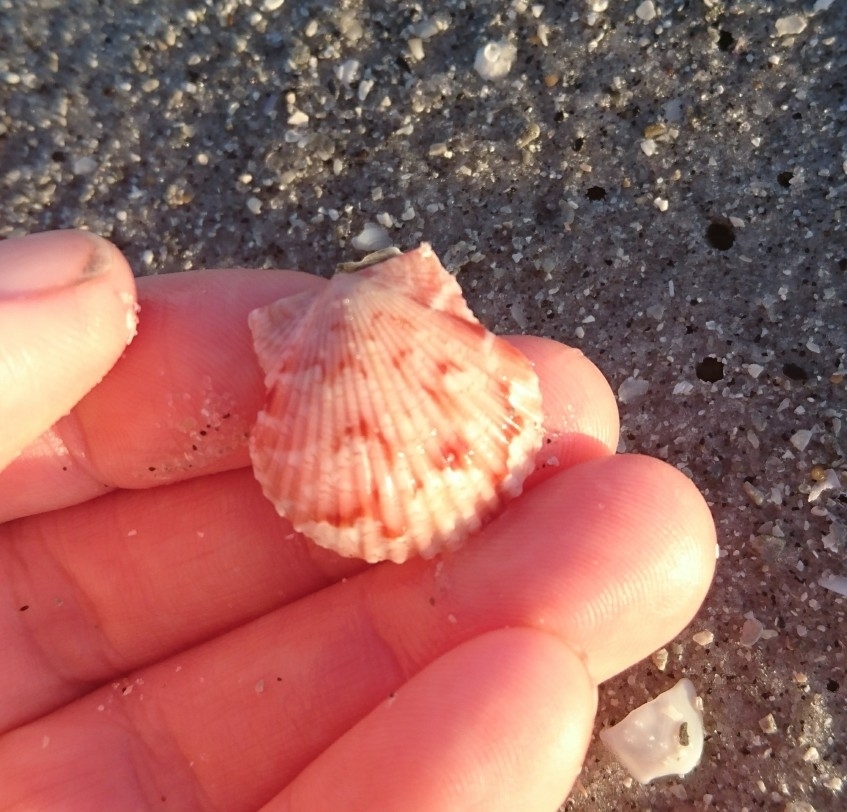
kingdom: Animalia
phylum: Mollusca
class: Bivalvia
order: Pectinida
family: Pectinidae
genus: Argopecten
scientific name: Argopecten gibbus
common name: Atlantic calico scallop
